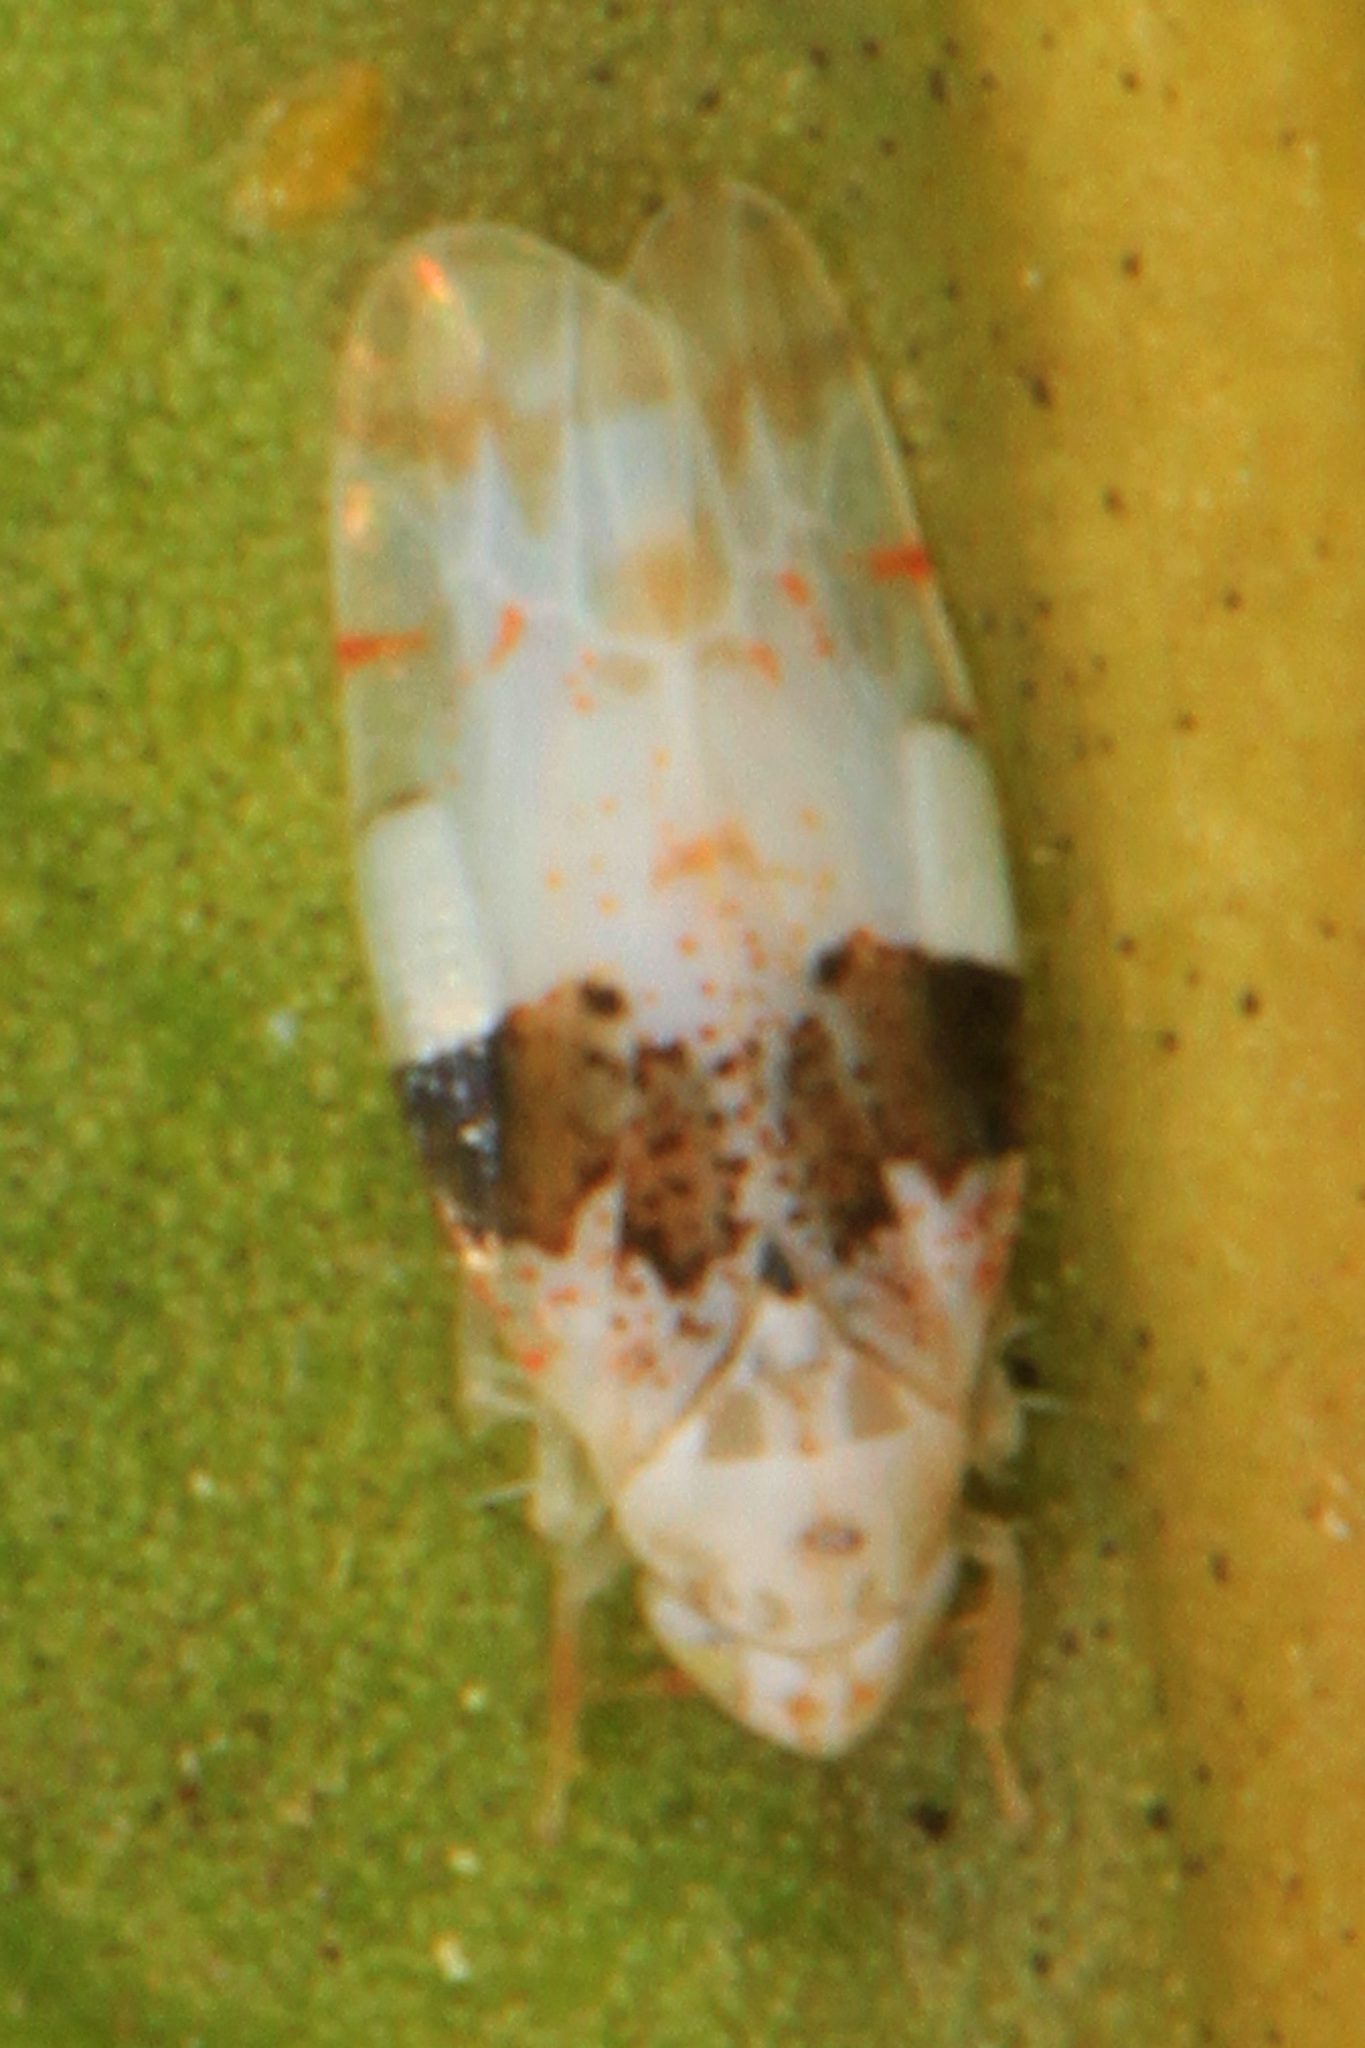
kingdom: Animalia
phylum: Arthropoda
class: Insecta
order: Hemiptera
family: Cicadellidae
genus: Hymetta
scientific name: Hymetta anthisma
